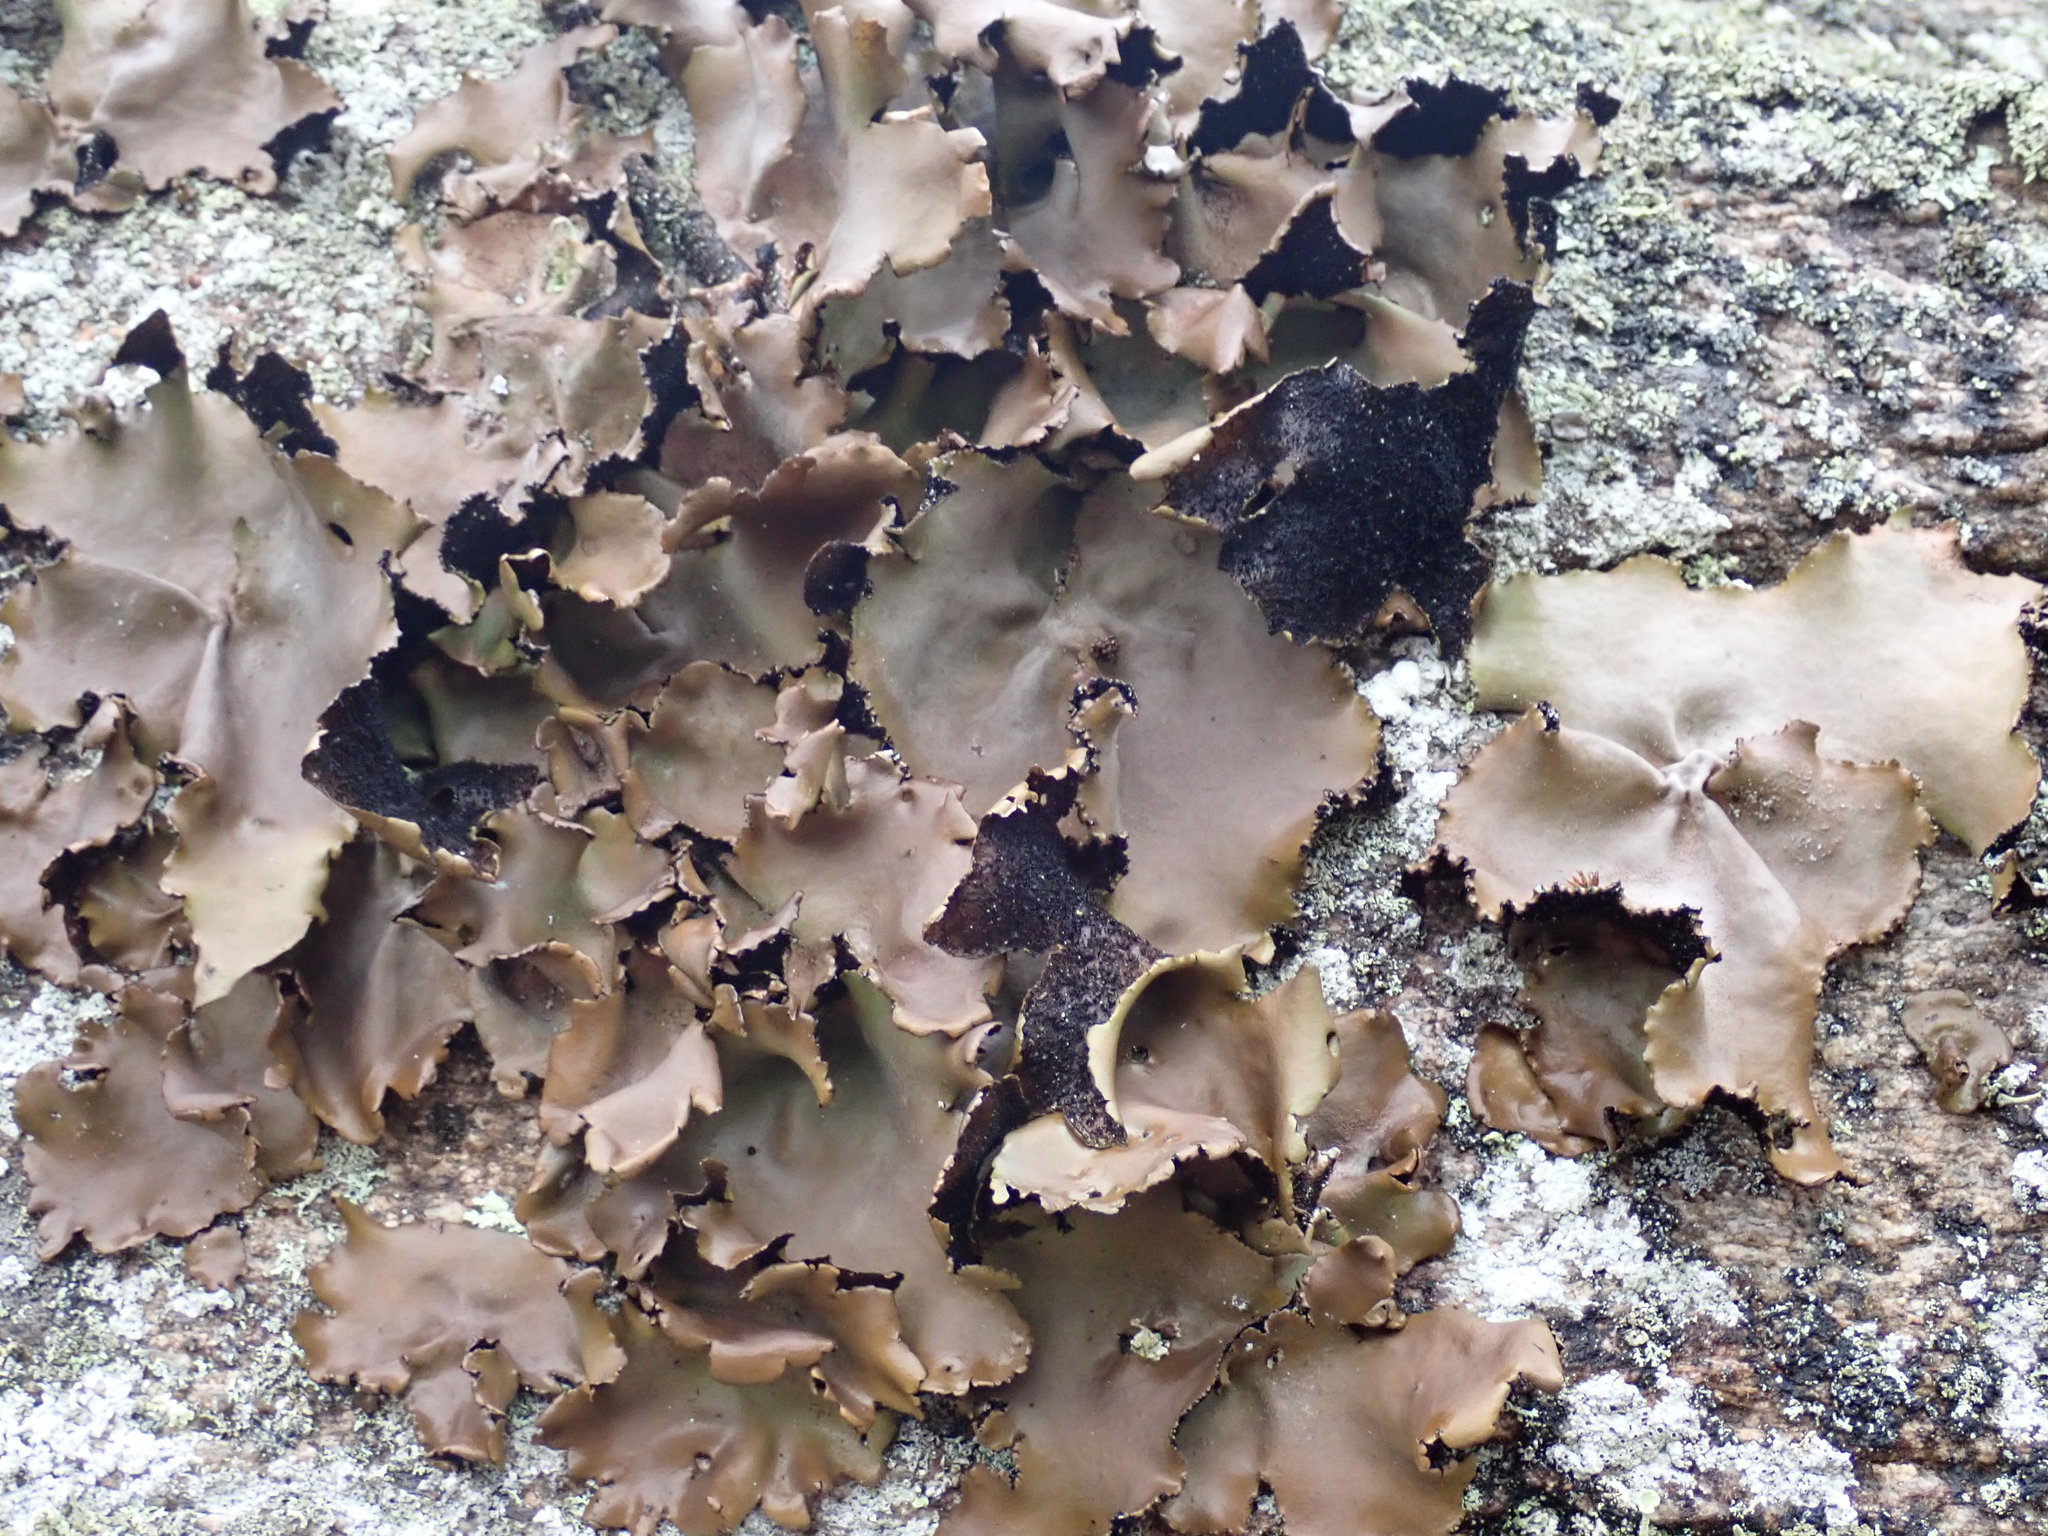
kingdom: Fungi
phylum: Ascomycota
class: Lecanoromycetes
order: Umbilicariales
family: Umbilicariaceae
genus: Umbilicaria
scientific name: Umbilicaria mammulata
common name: Smooth rock tripe
